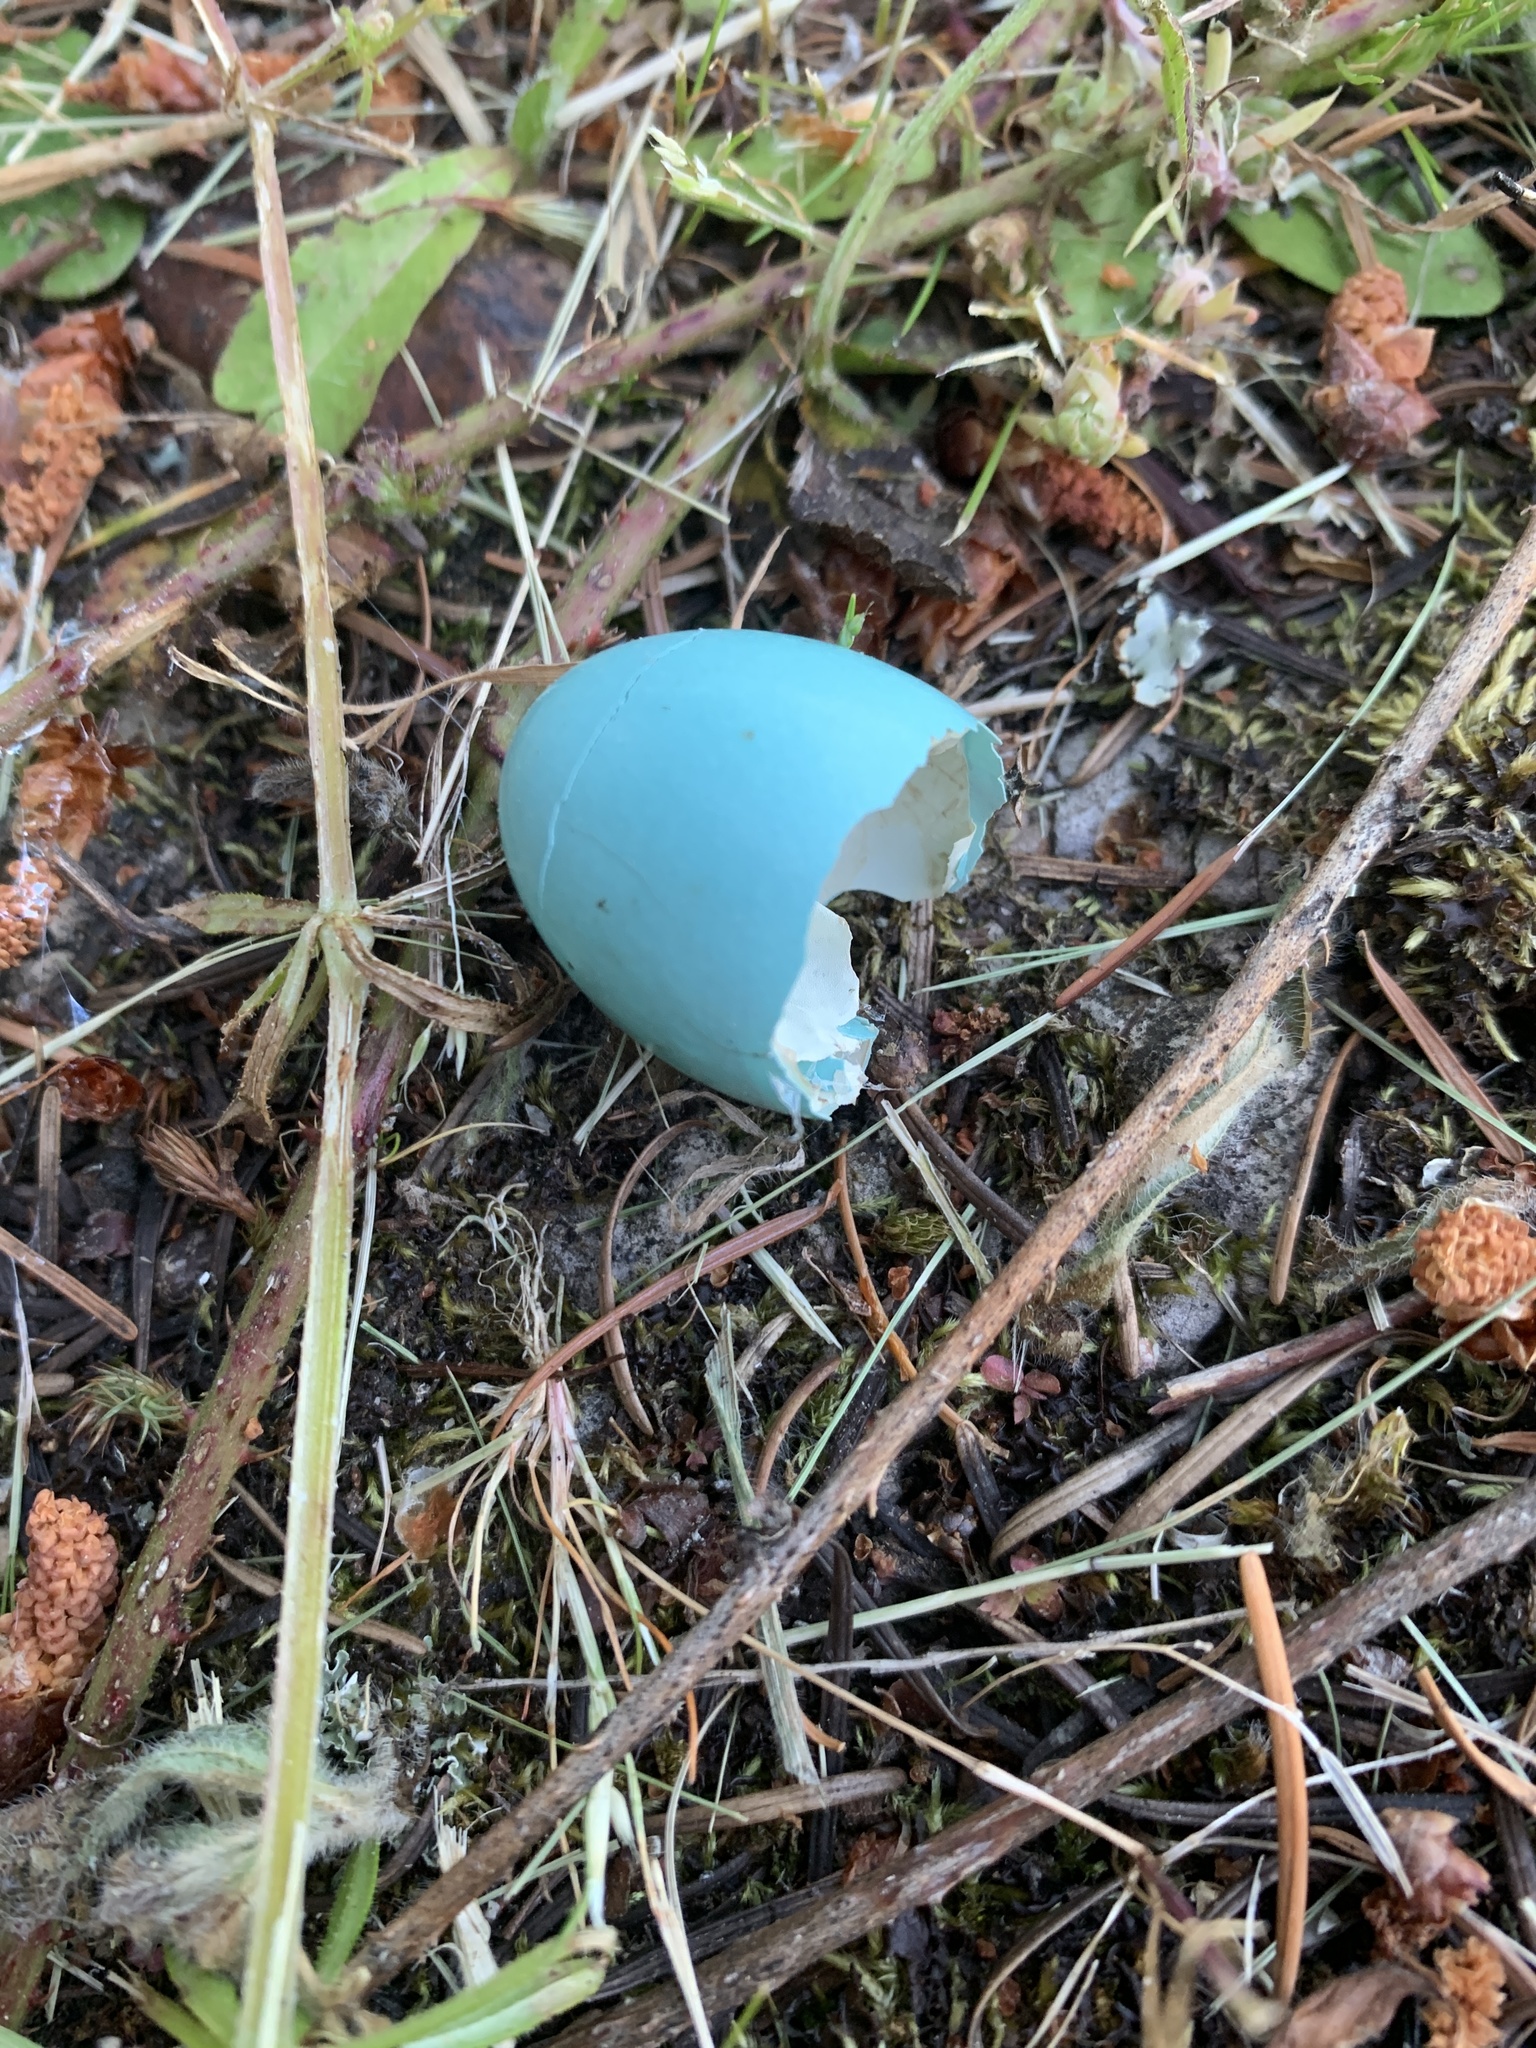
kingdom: Animalia
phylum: Chordata
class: Aves
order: Passeriformes
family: Turdidae
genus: Turdus
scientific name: Turdus migratorius
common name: American robin
